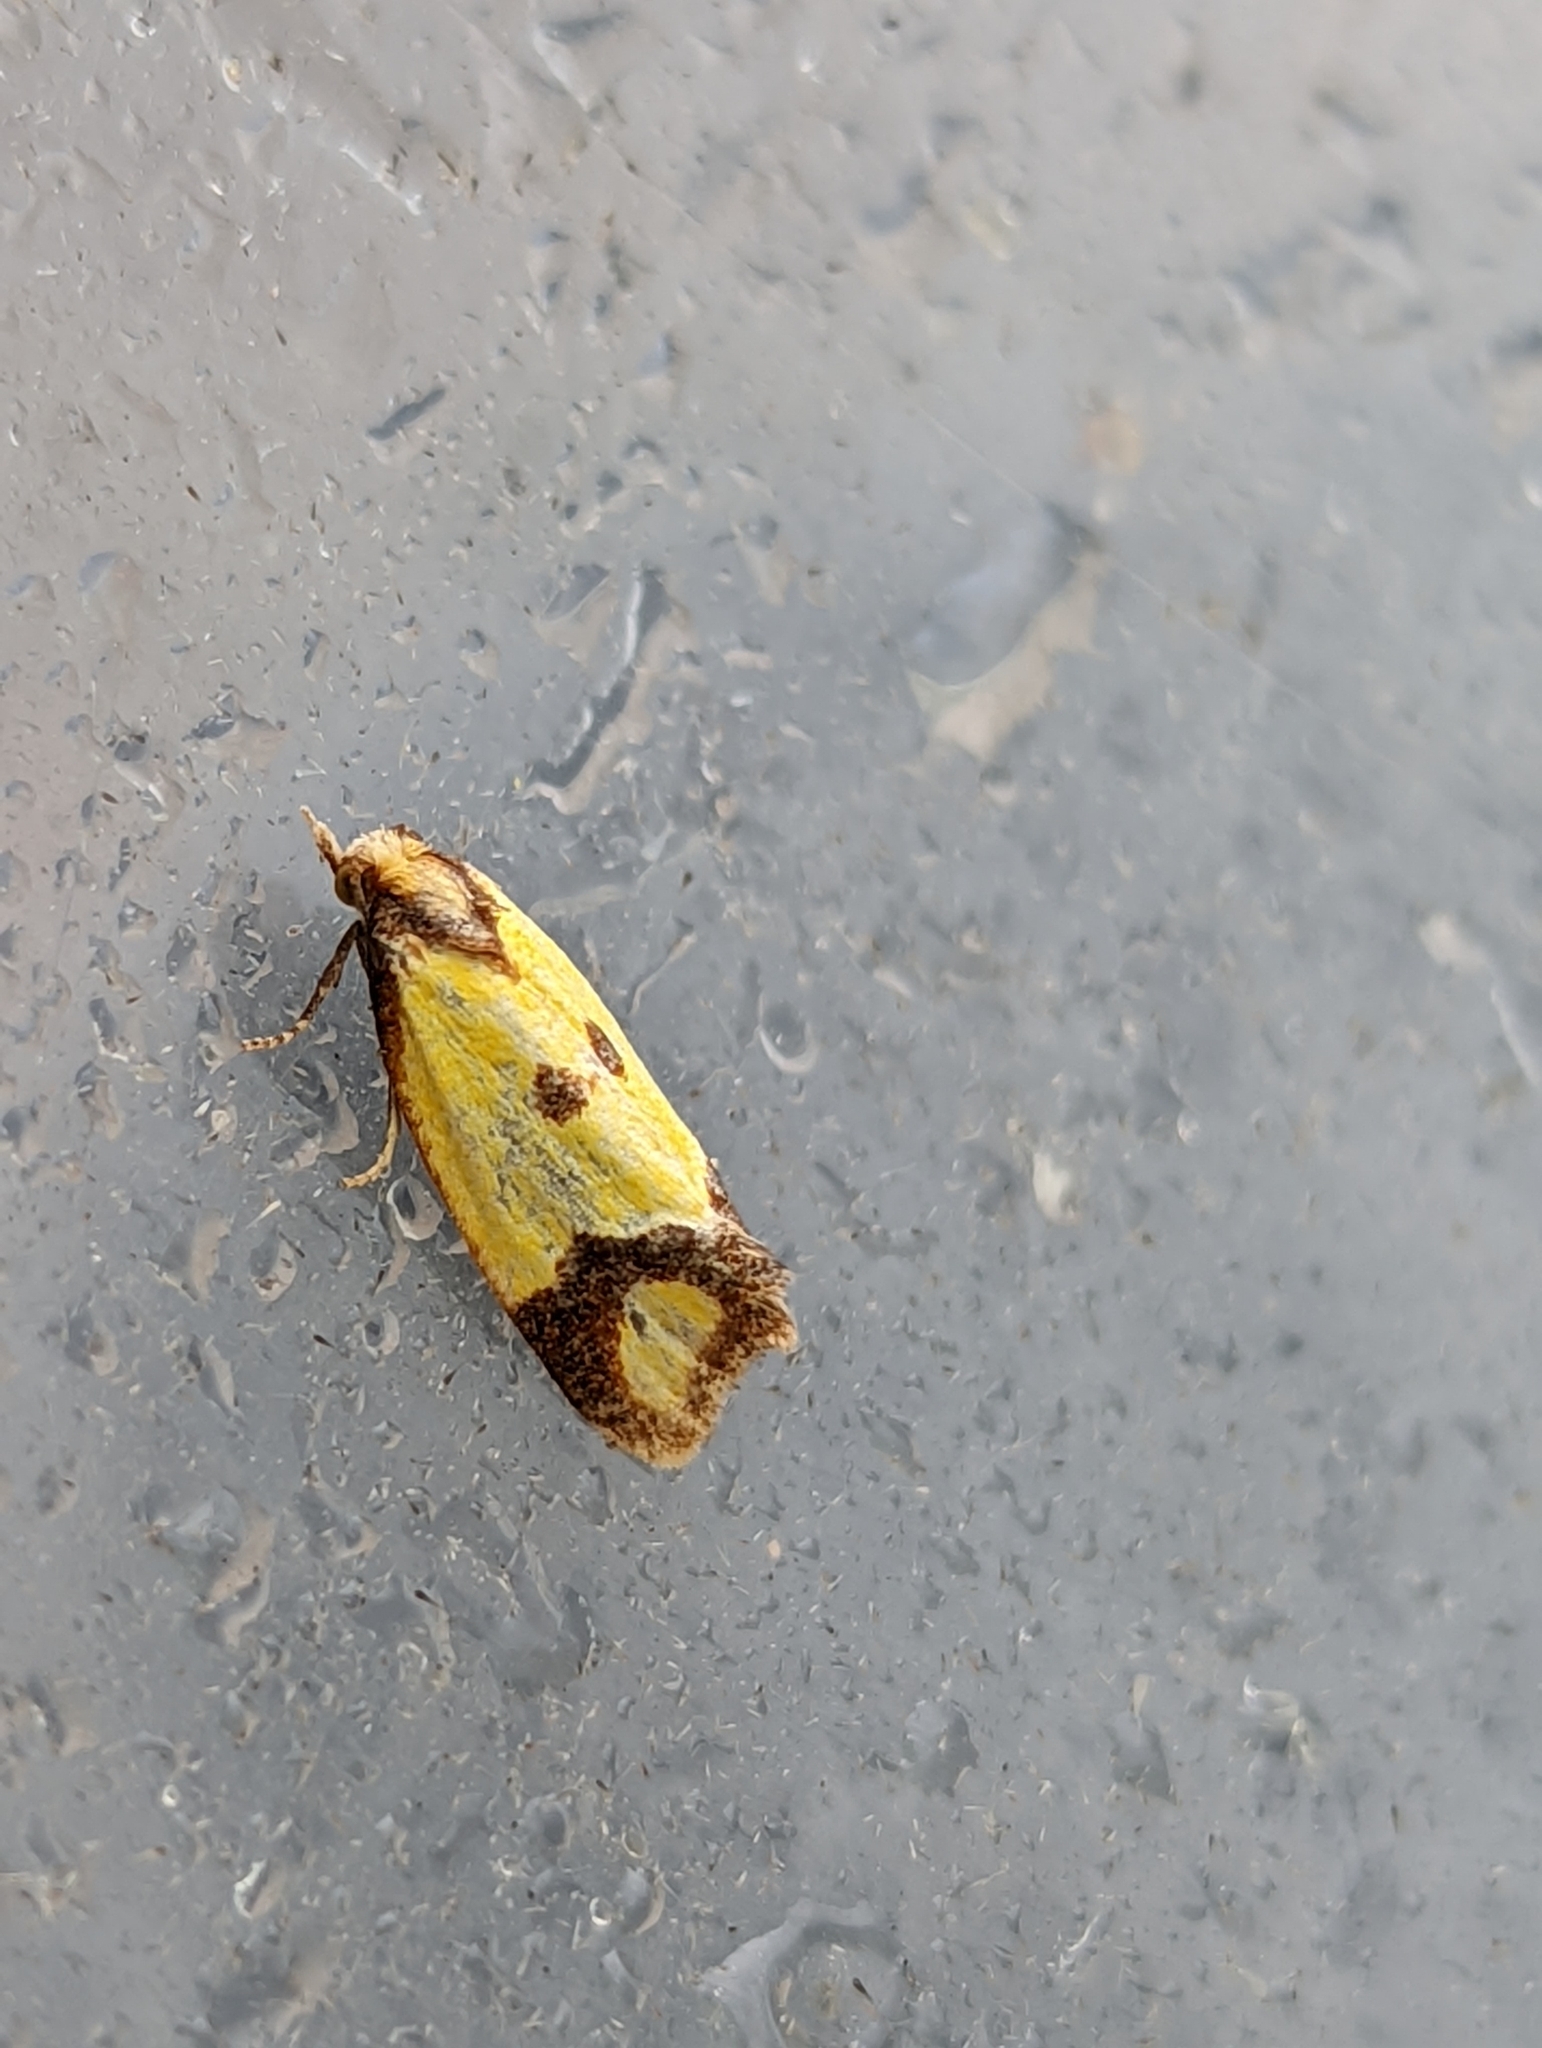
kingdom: Animalia
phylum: Arthropoda
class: Insecta
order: Lepidoptera
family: Tortricidae
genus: Agapeta
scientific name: Agapeta zoegana
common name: Sulfur knapweed root moth
